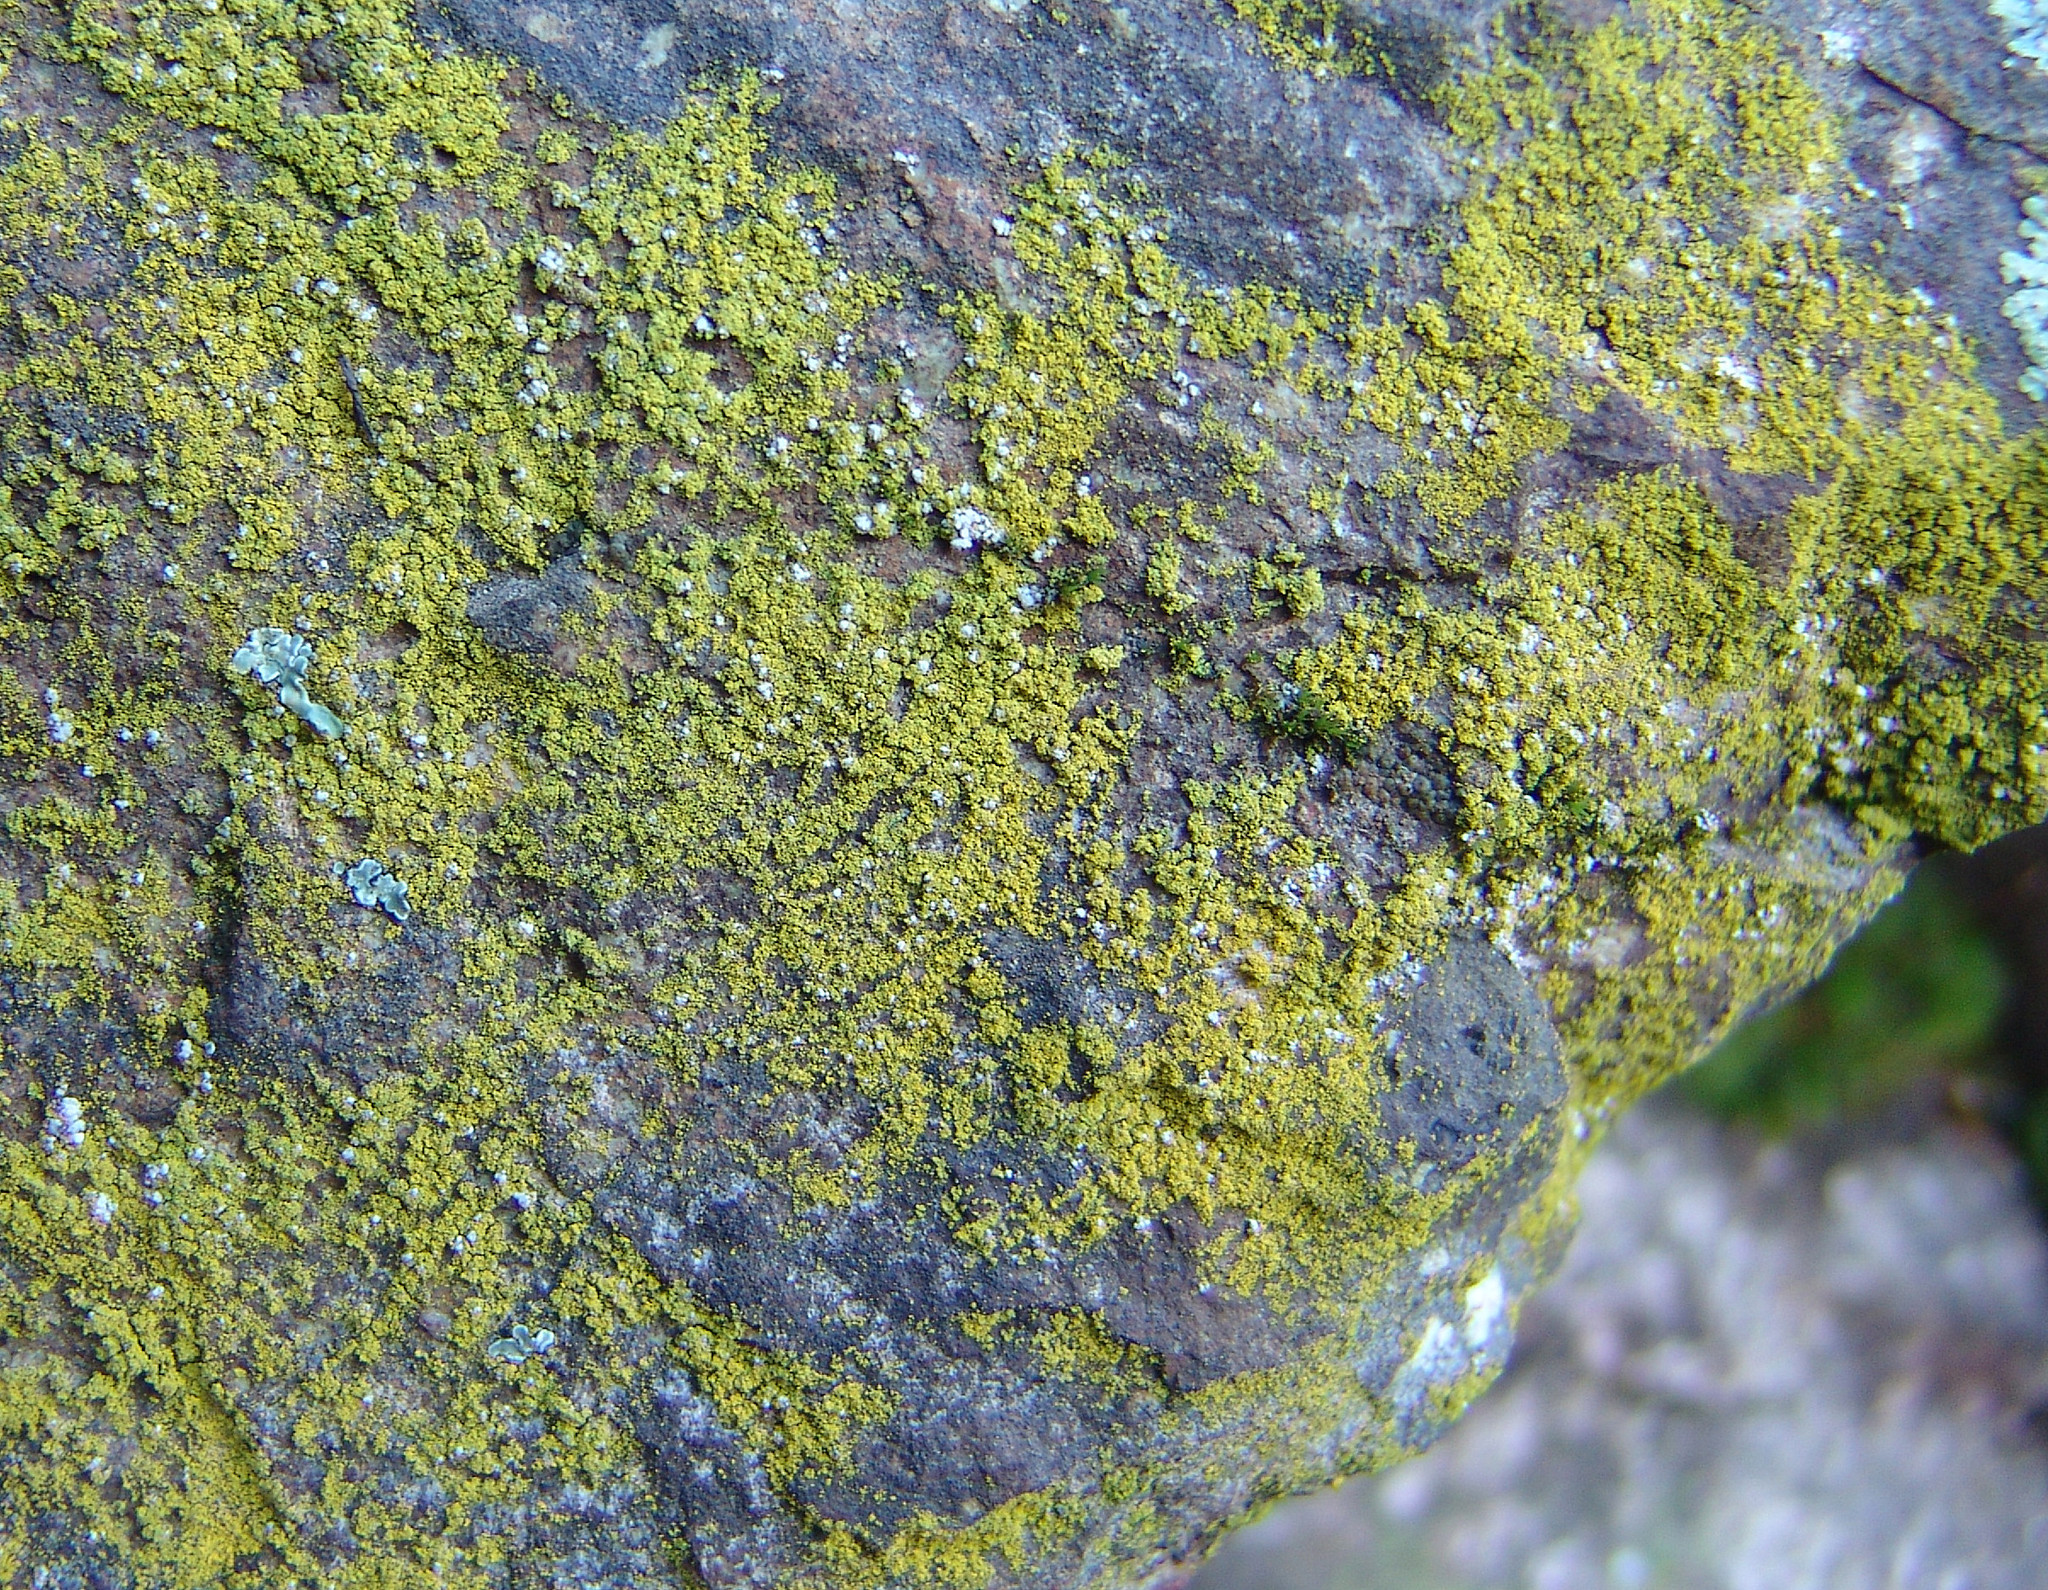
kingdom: Fungi
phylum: Ascomycota
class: Candelariomycetes
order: Candelariales
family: Candelariaceae
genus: Candelaria
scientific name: Candelaria concolor
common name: Candleflame lichen
